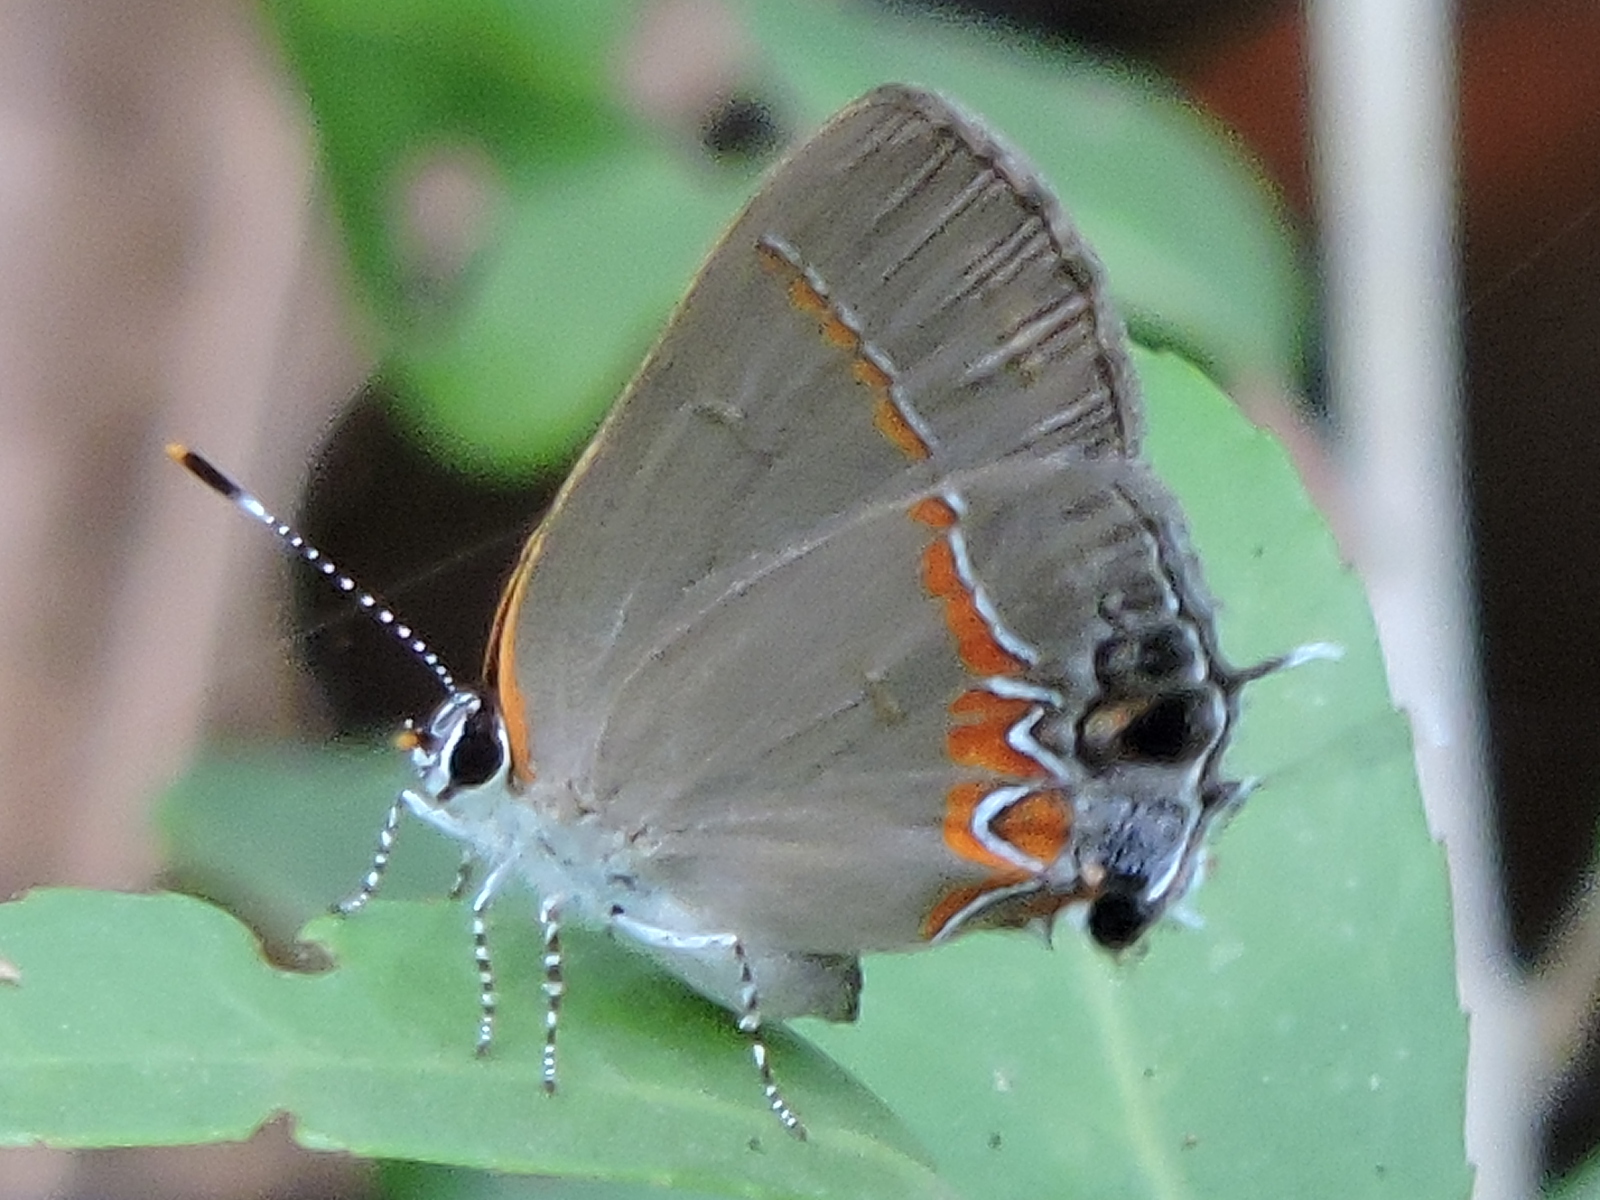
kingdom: Animalia
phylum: Arthropoda
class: Insecta
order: Lepidoptera
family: Lycaenidae
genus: Calycopis
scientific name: Calycopis cecrops
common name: Red-banded hairstreak
